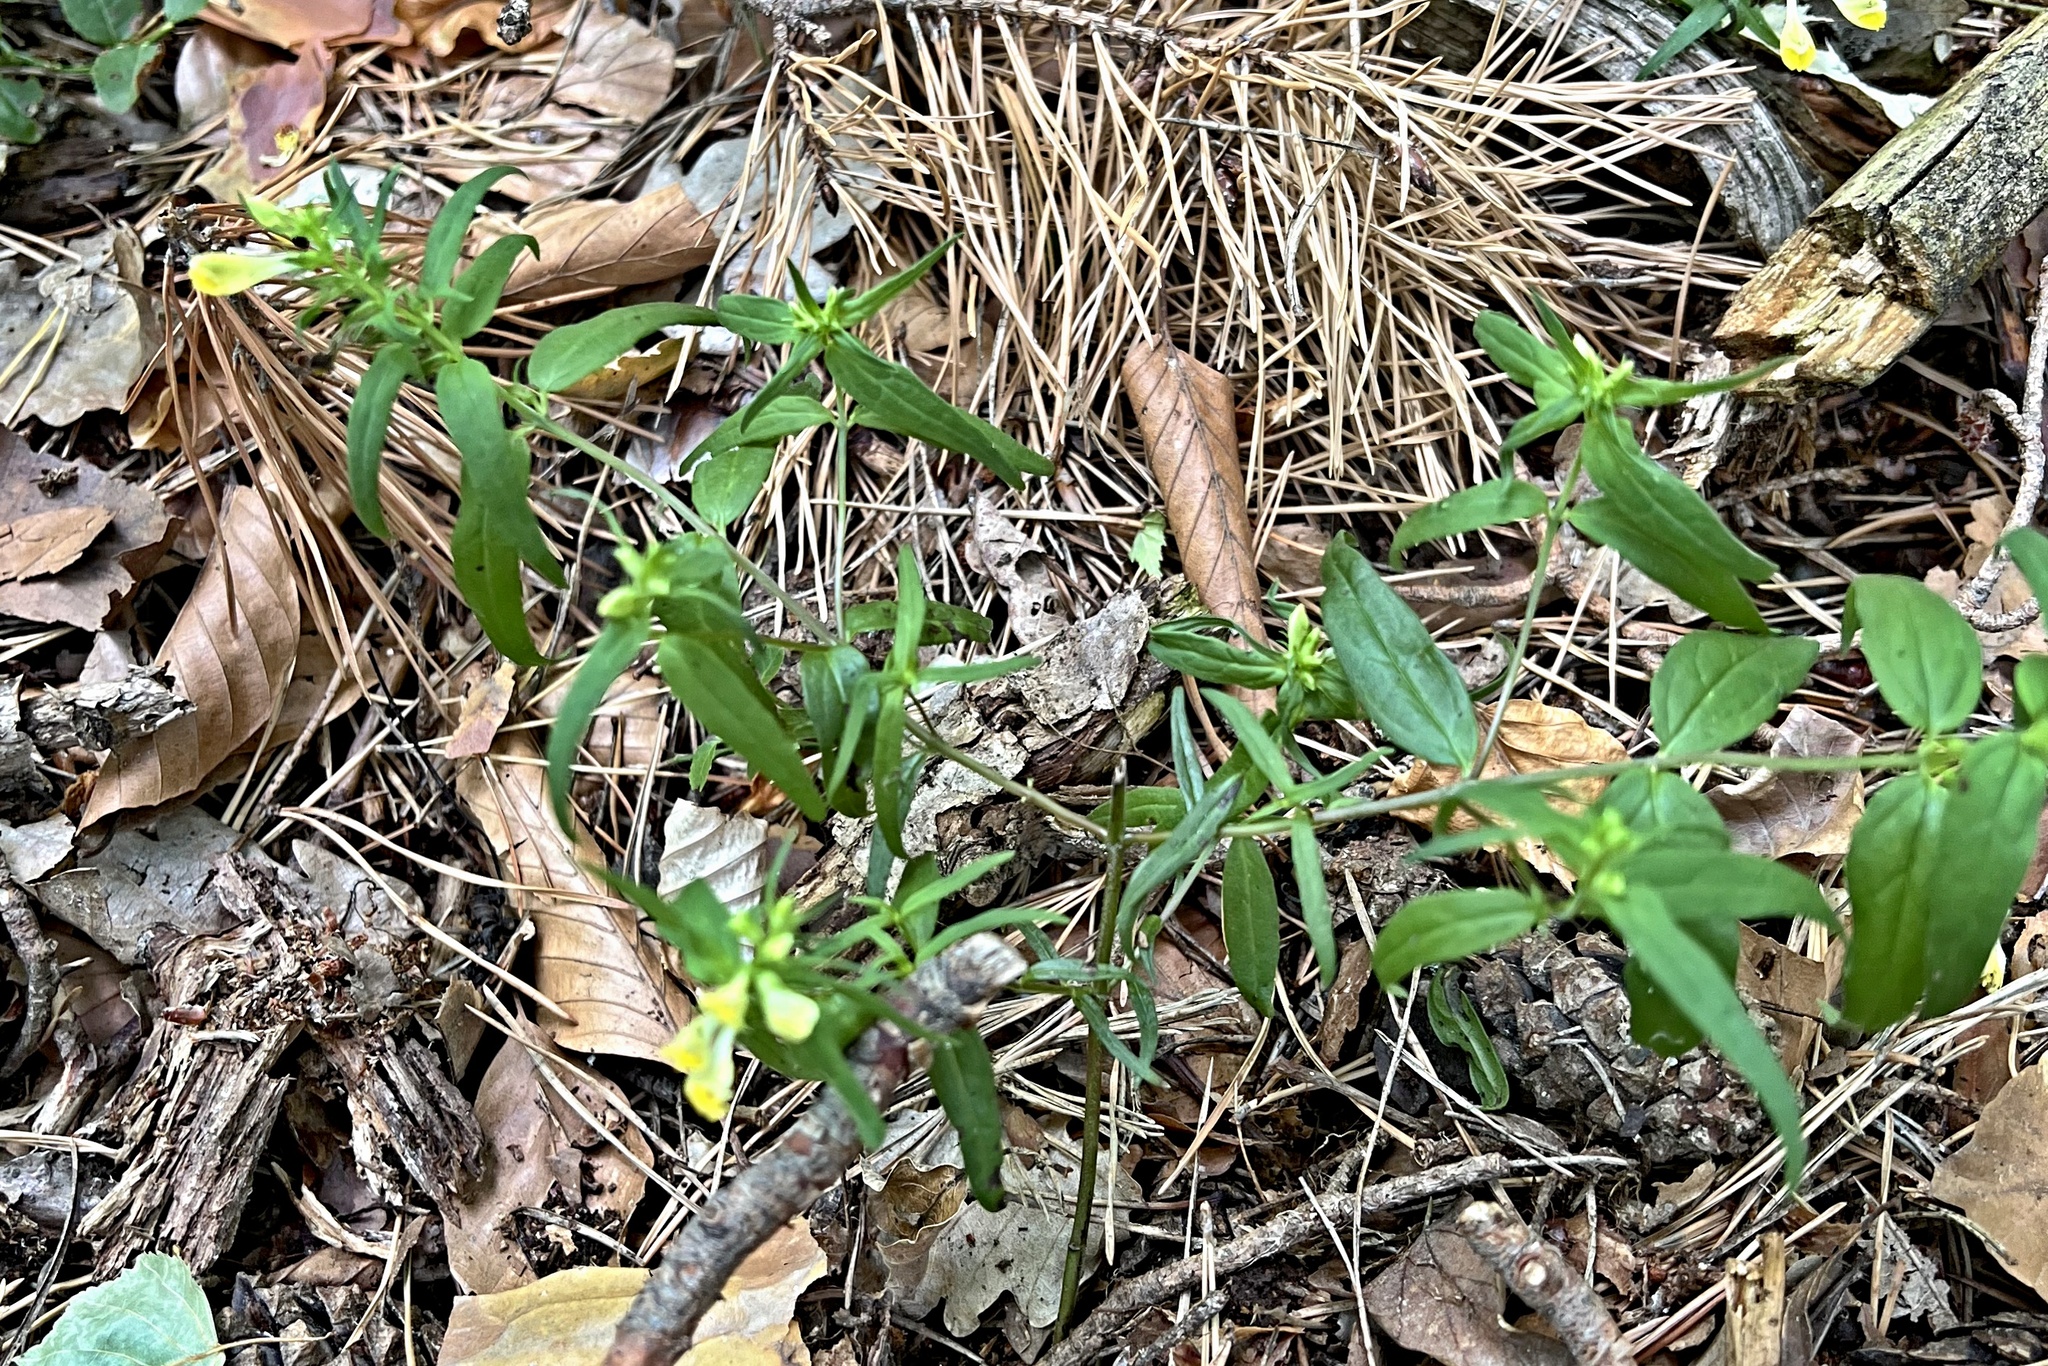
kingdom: Plantae
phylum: Tracheophyta
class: Magnoliopsida
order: Lamiales
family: Orobanchaceae
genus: Melampyrum
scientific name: Melampyrum pratense
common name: Common cow-wheat
